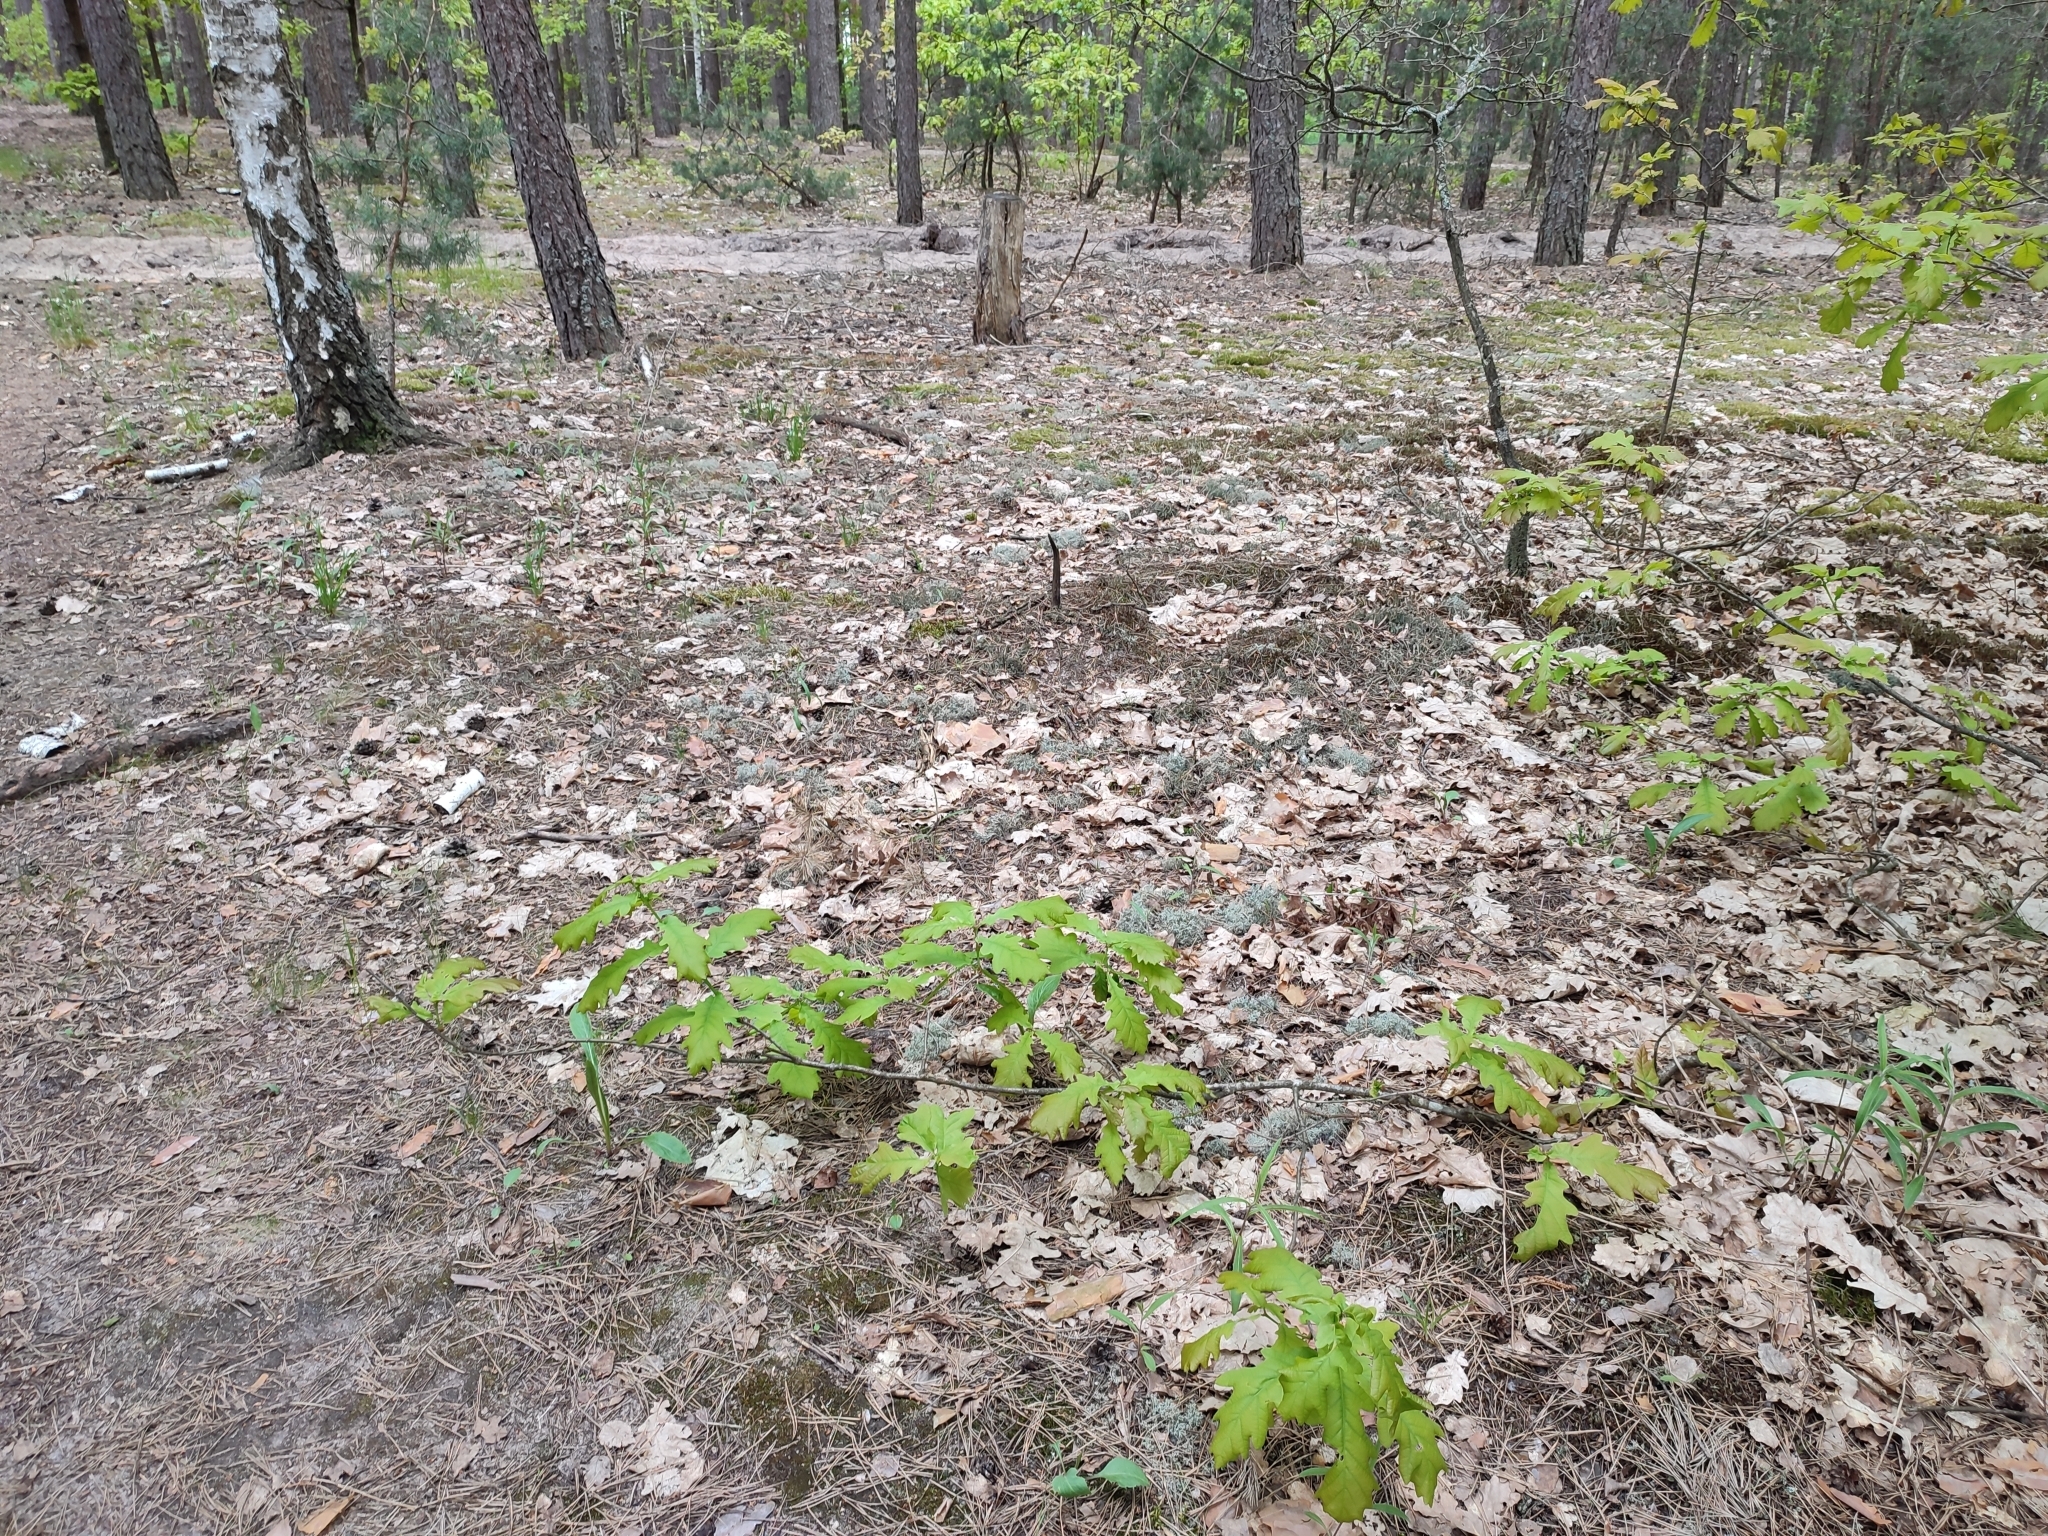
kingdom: Plantae
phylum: Tracheophyta
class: Magnoliopsida
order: Fagales
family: Fagaceae
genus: Quercus
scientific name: Quercus robur
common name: Pedunculate oak
